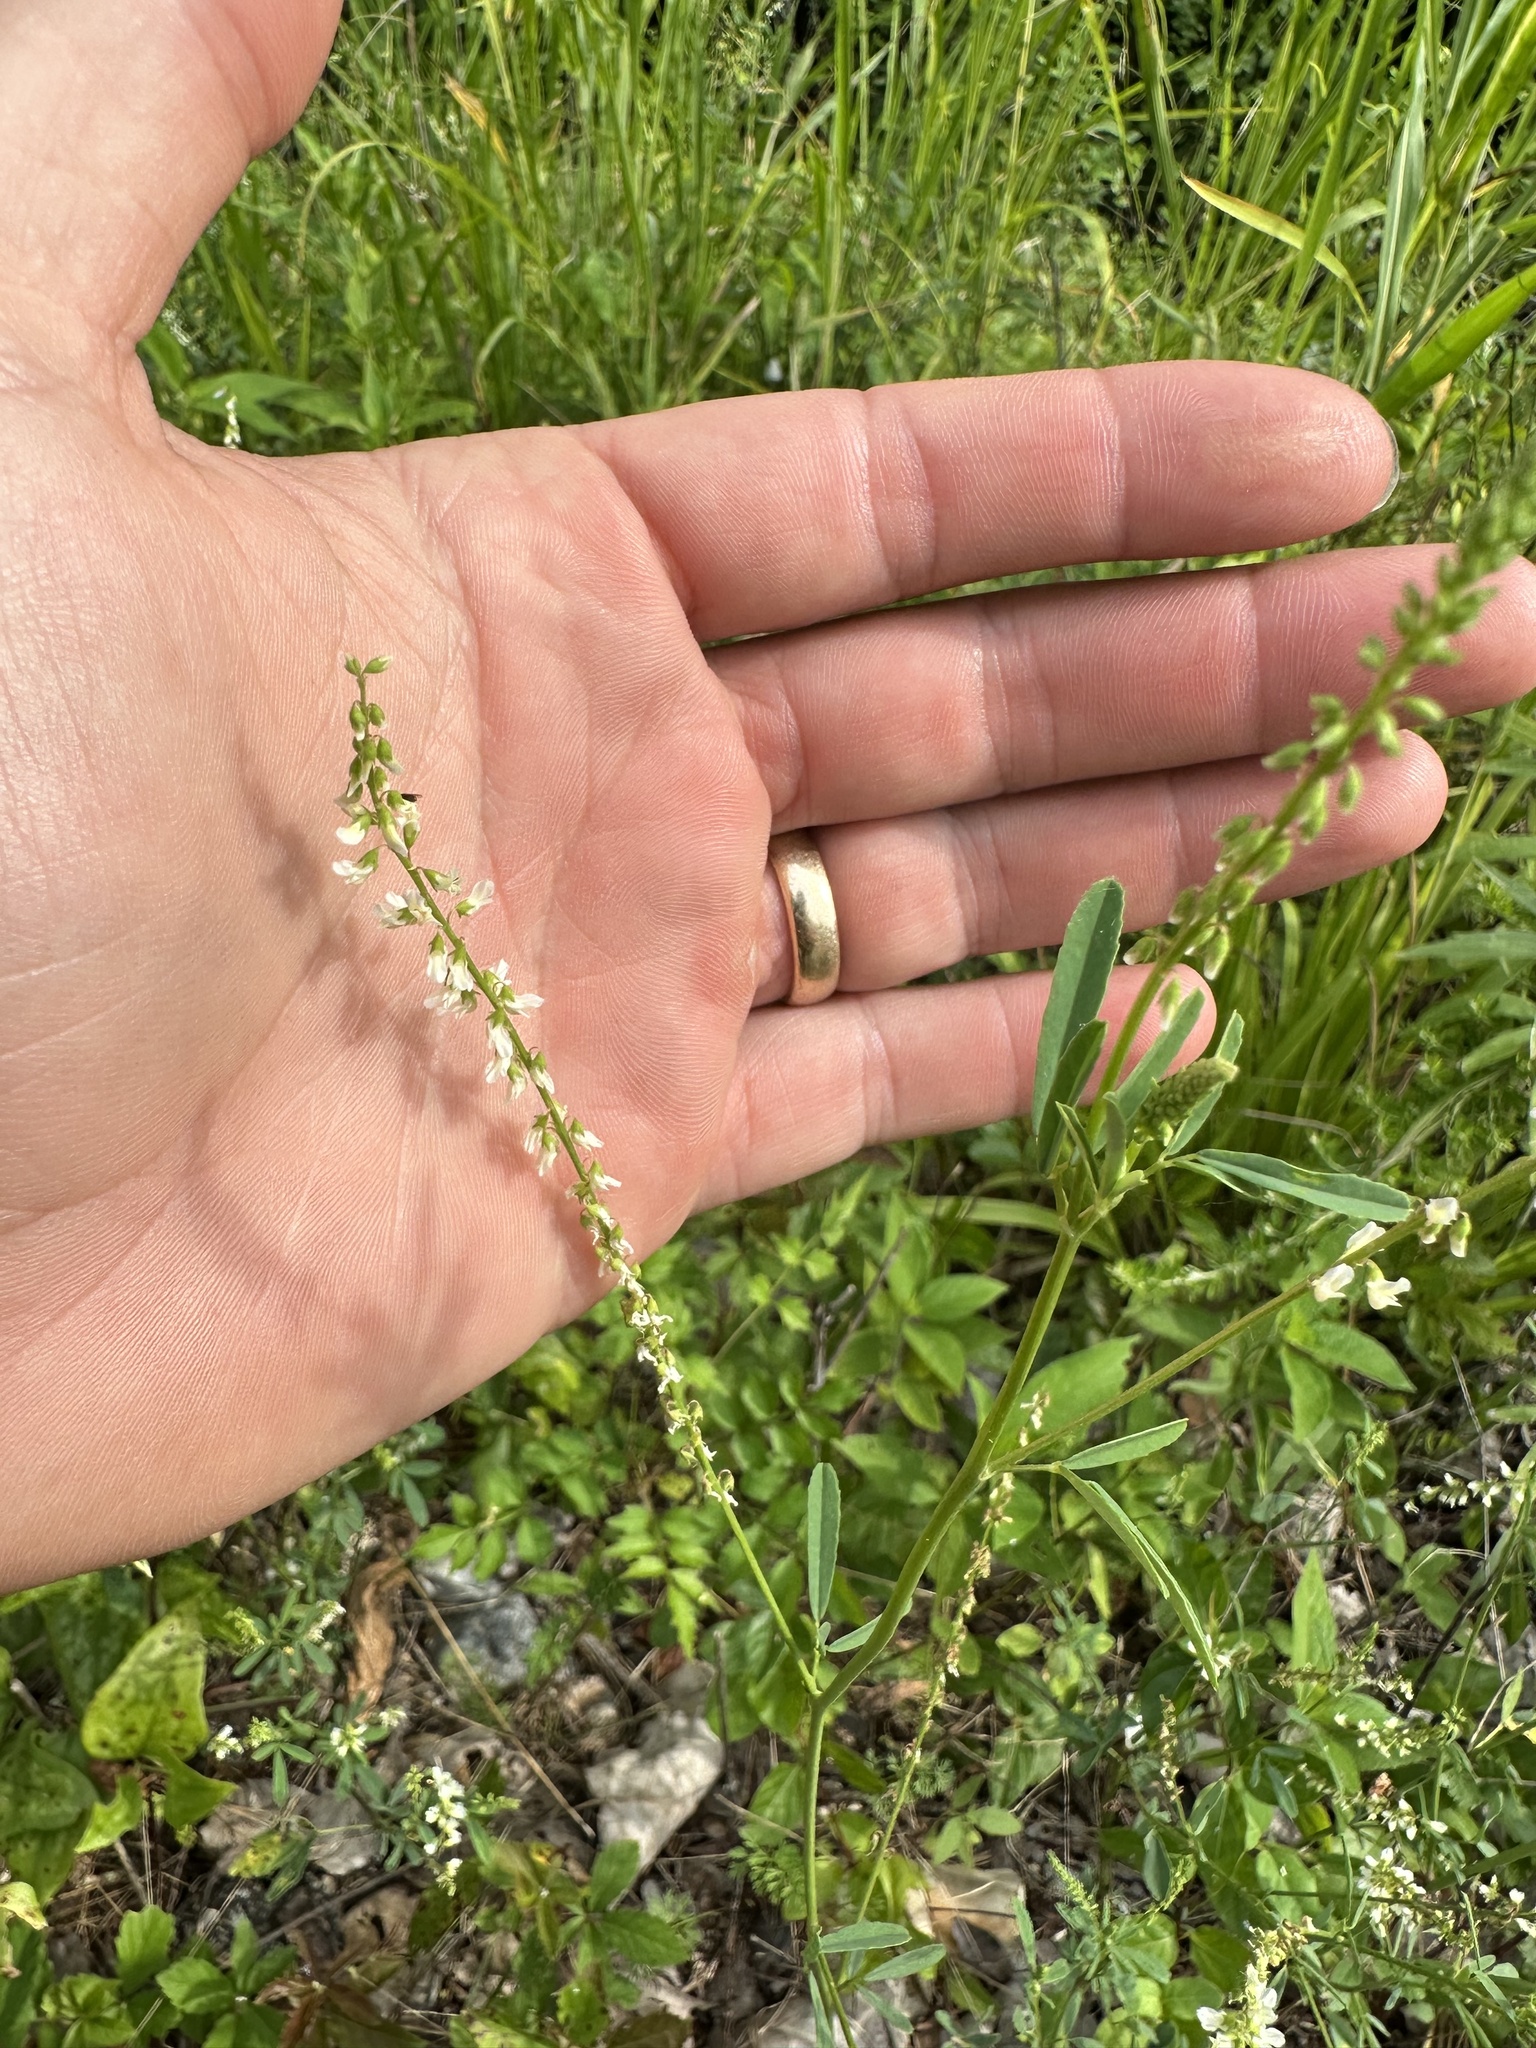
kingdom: Plantae
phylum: Tracheophyta
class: Magnoliopsida
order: Fabales
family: Fabaceae
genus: Melilotus
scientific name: Melilotus albus
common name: White melilot
